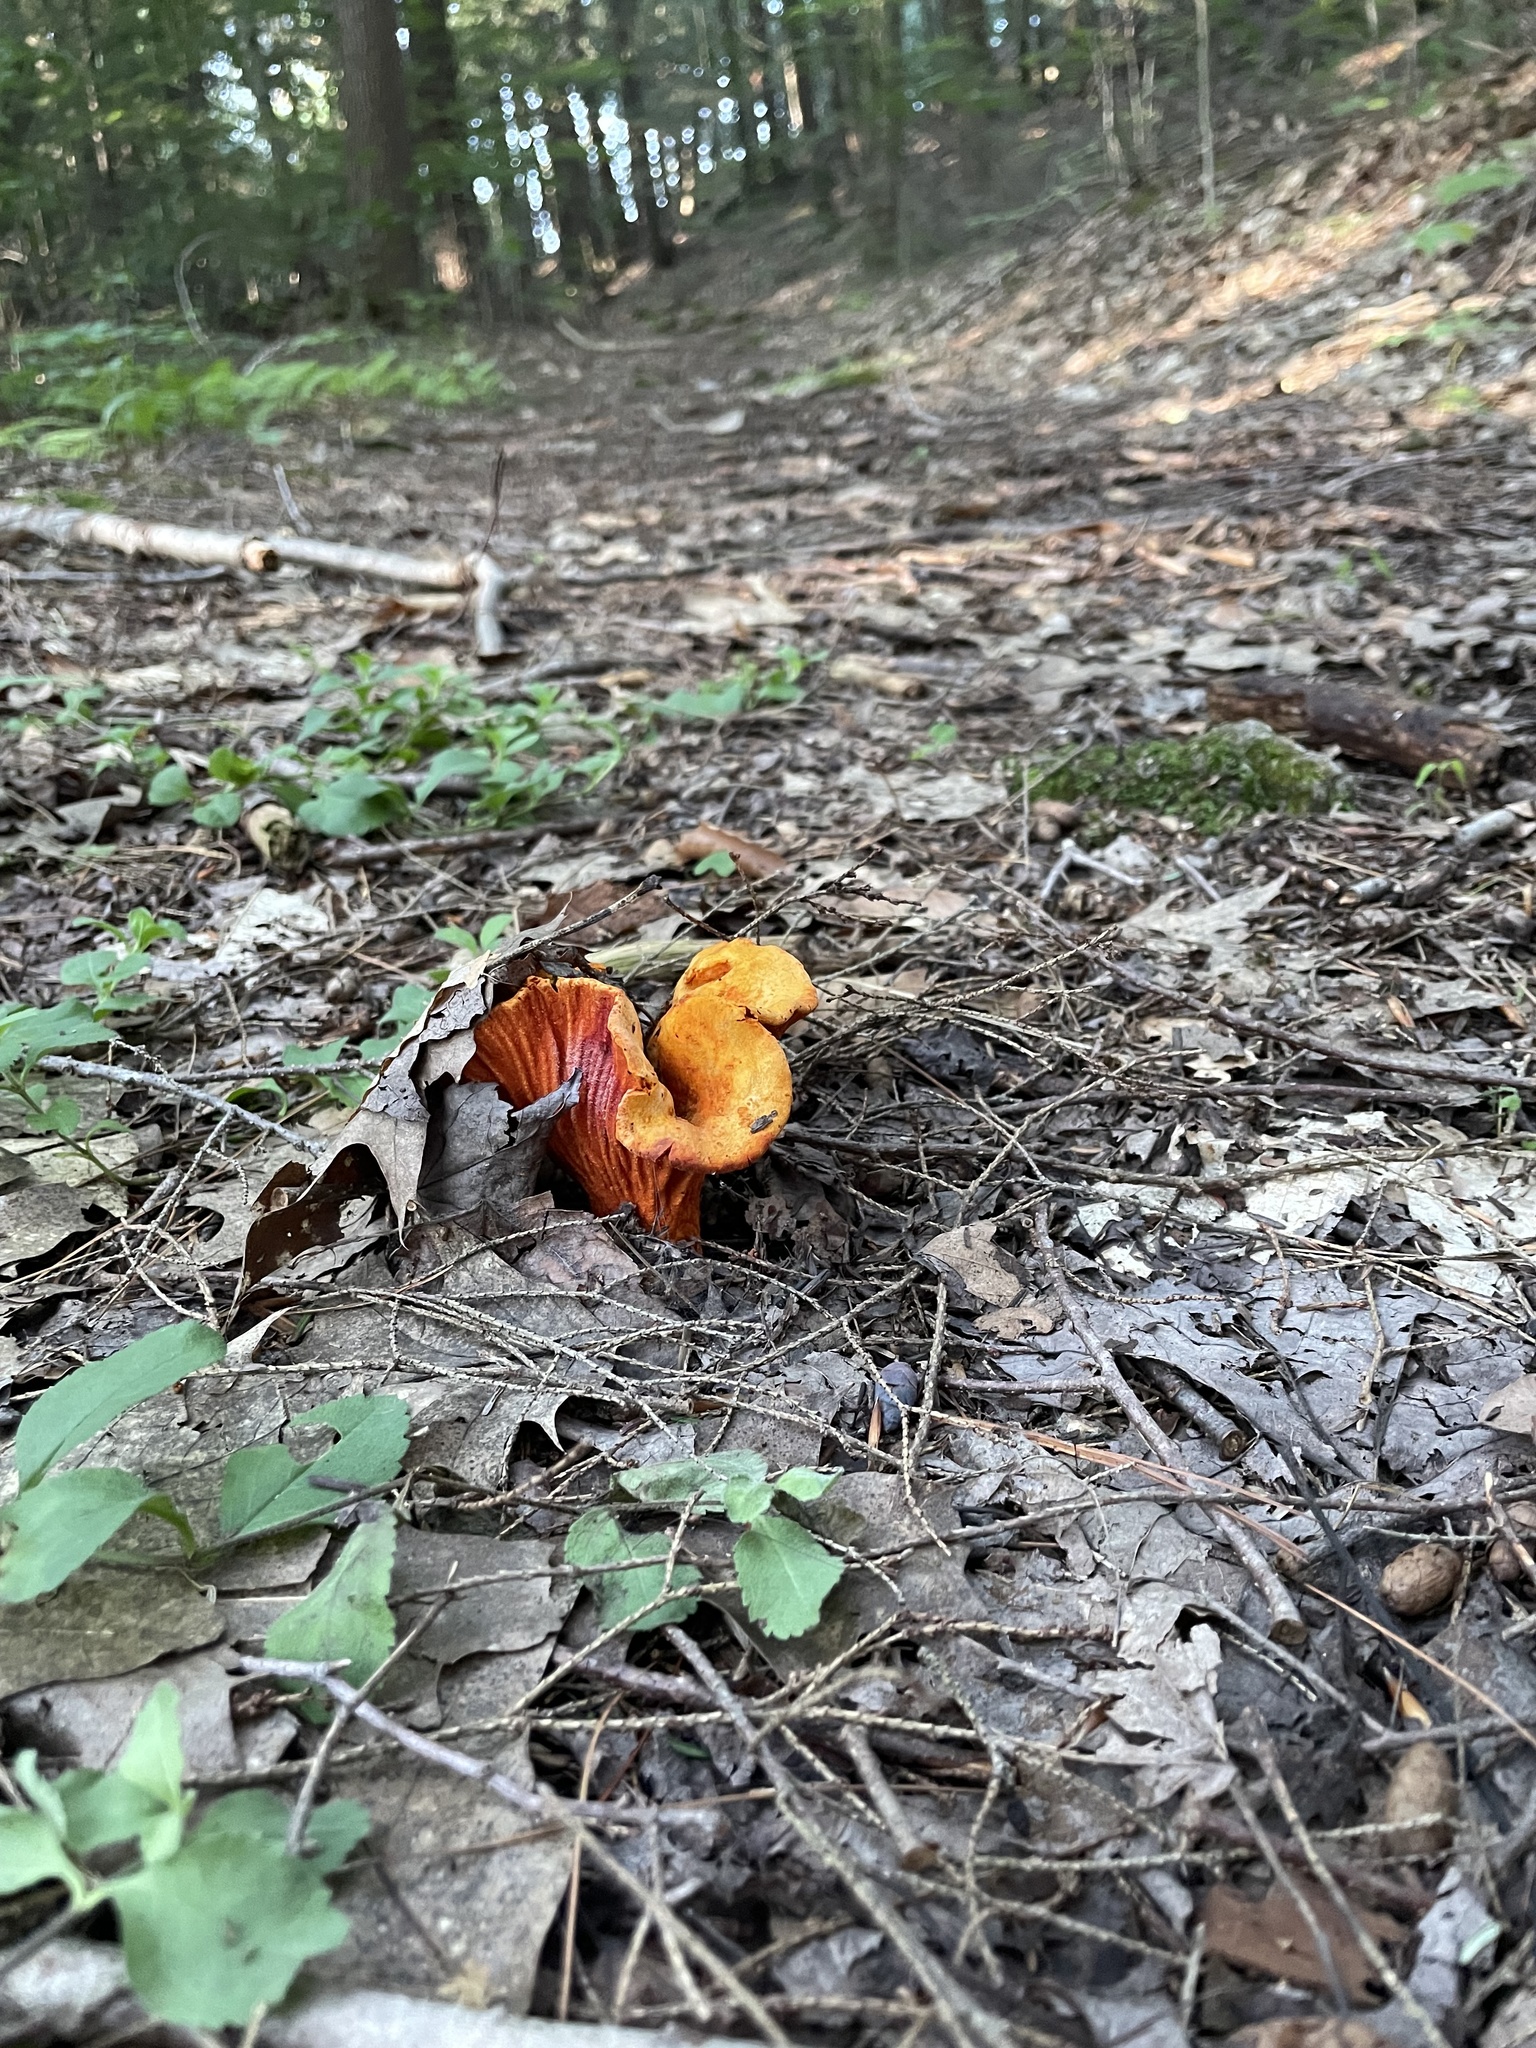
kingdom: Fungi
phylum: Ascomycota
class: Sordariomycetes
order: Hypocreales
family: Hypocreaceae
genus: Hypomyces
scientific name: Hypomyces lactifluorum
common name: Lobster mushroom
